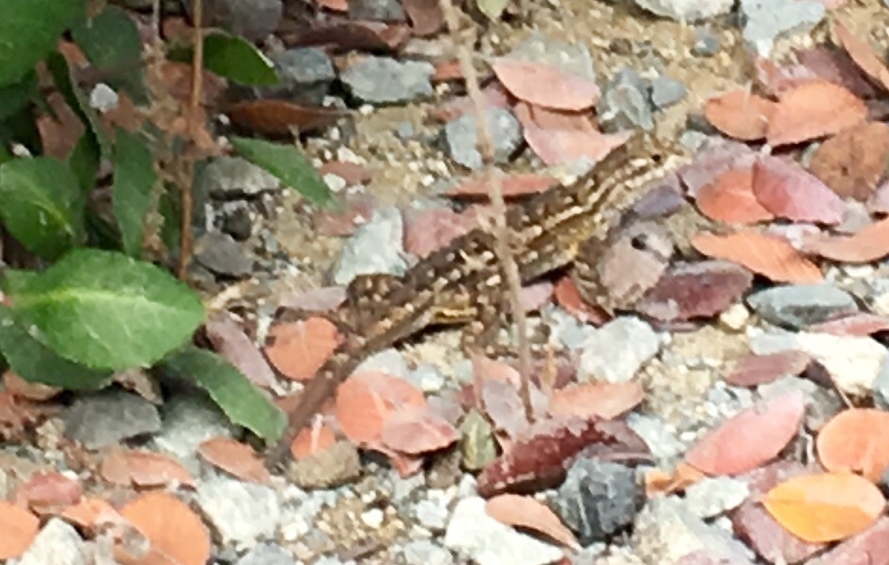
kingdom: Animalia
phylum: Chordata
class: Squamata
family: Phrynosomatidae
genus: Sceloporus
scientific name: Sceloporus occidentalis
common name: Western fence lizard
